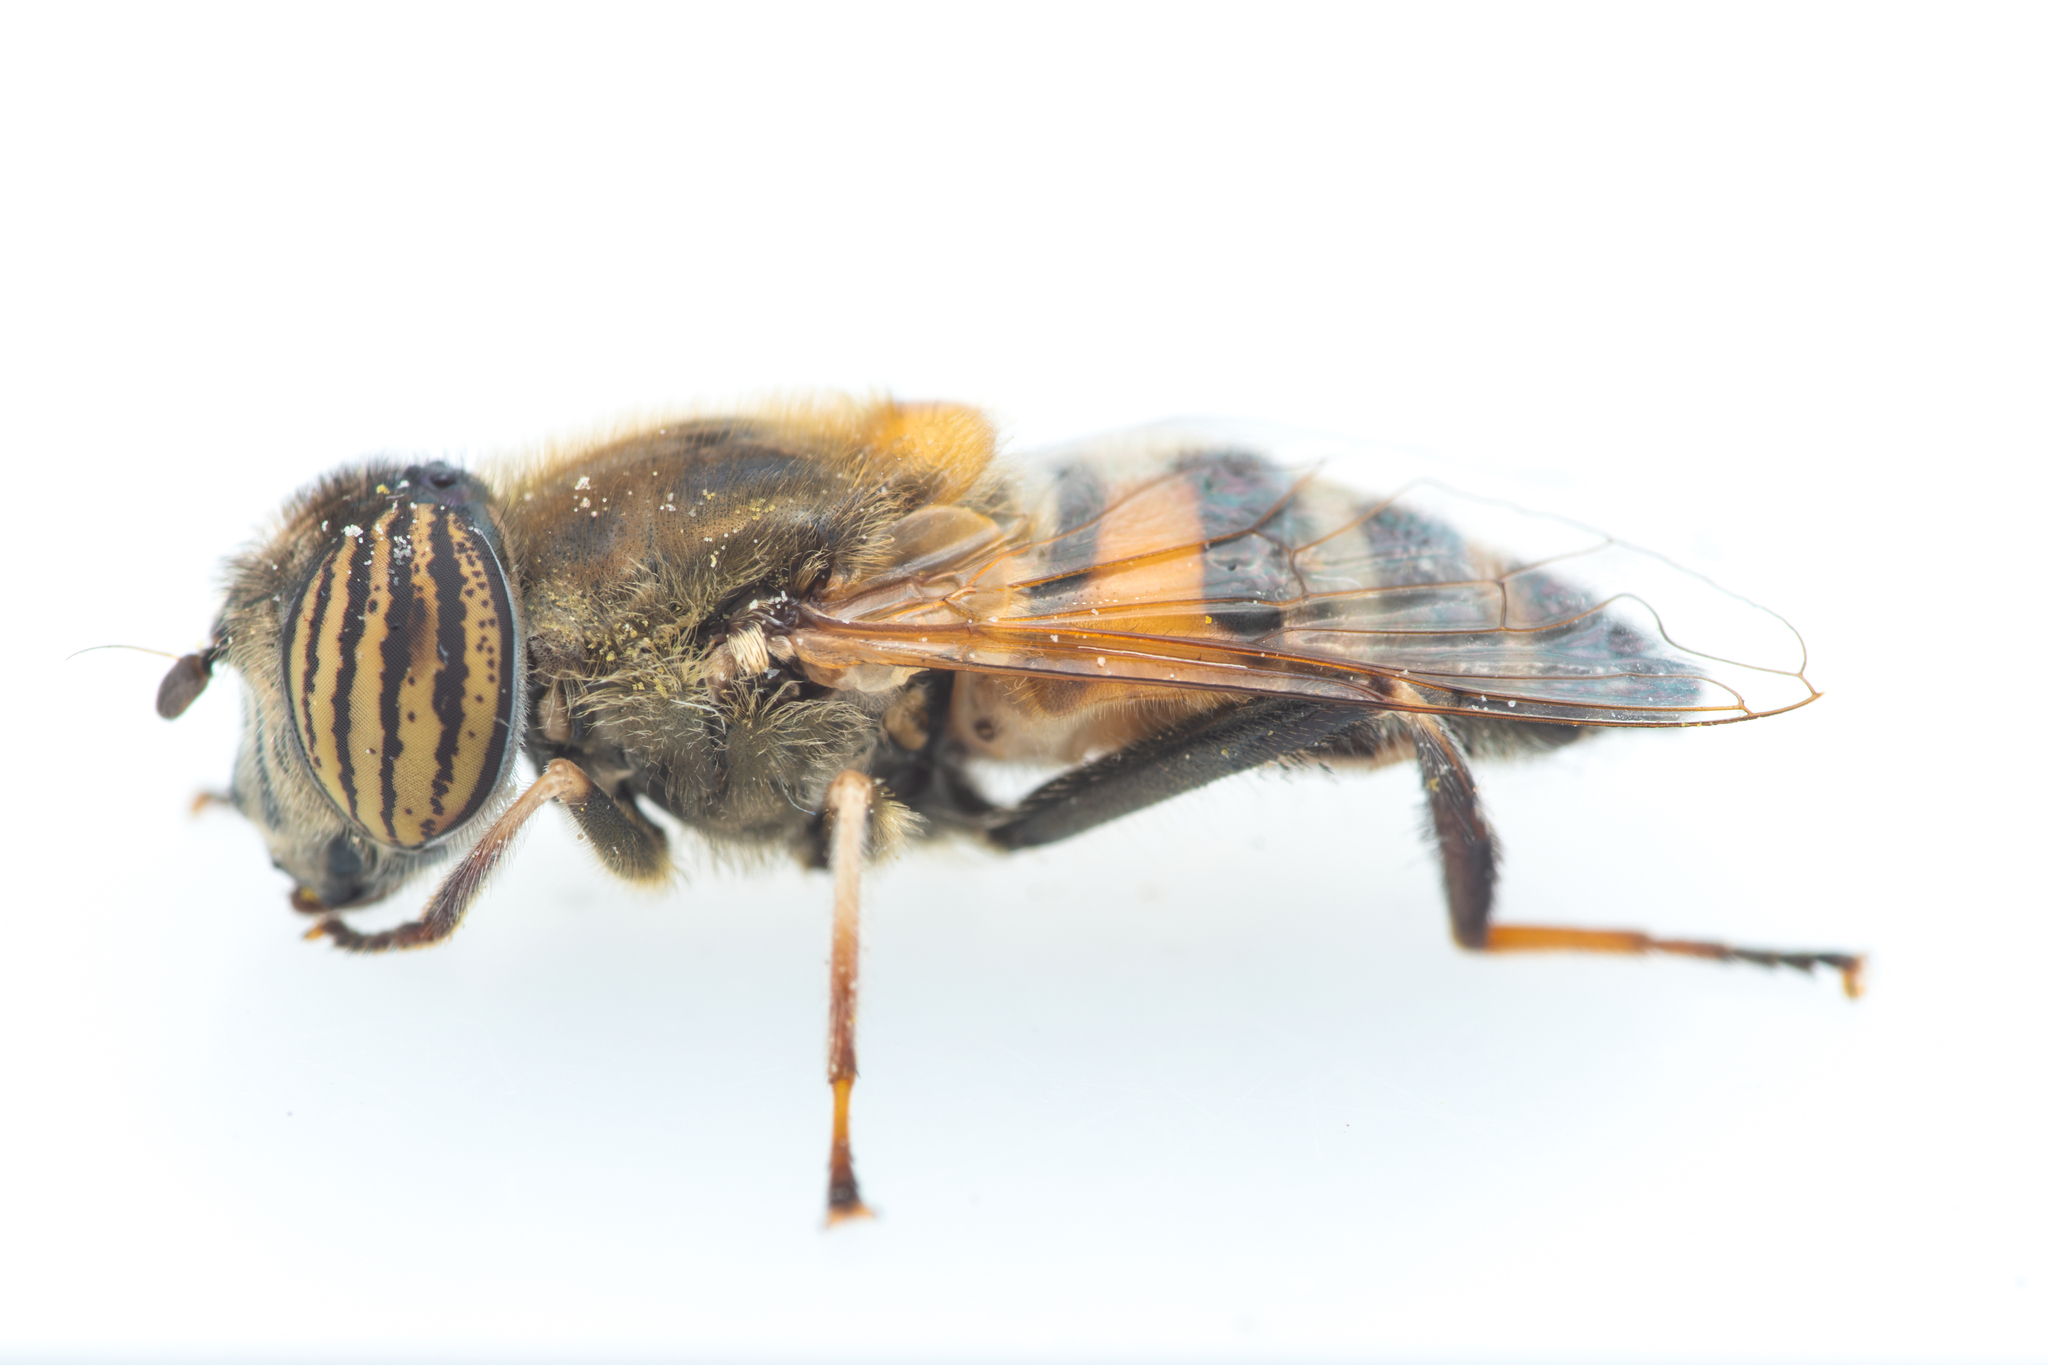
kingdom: Animalia
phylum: Arthropoda
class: Insecta
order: Diptera
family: Syrphidae
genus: Eristalinus
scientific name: Eristalinus taeniops
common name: Syrphid fly
